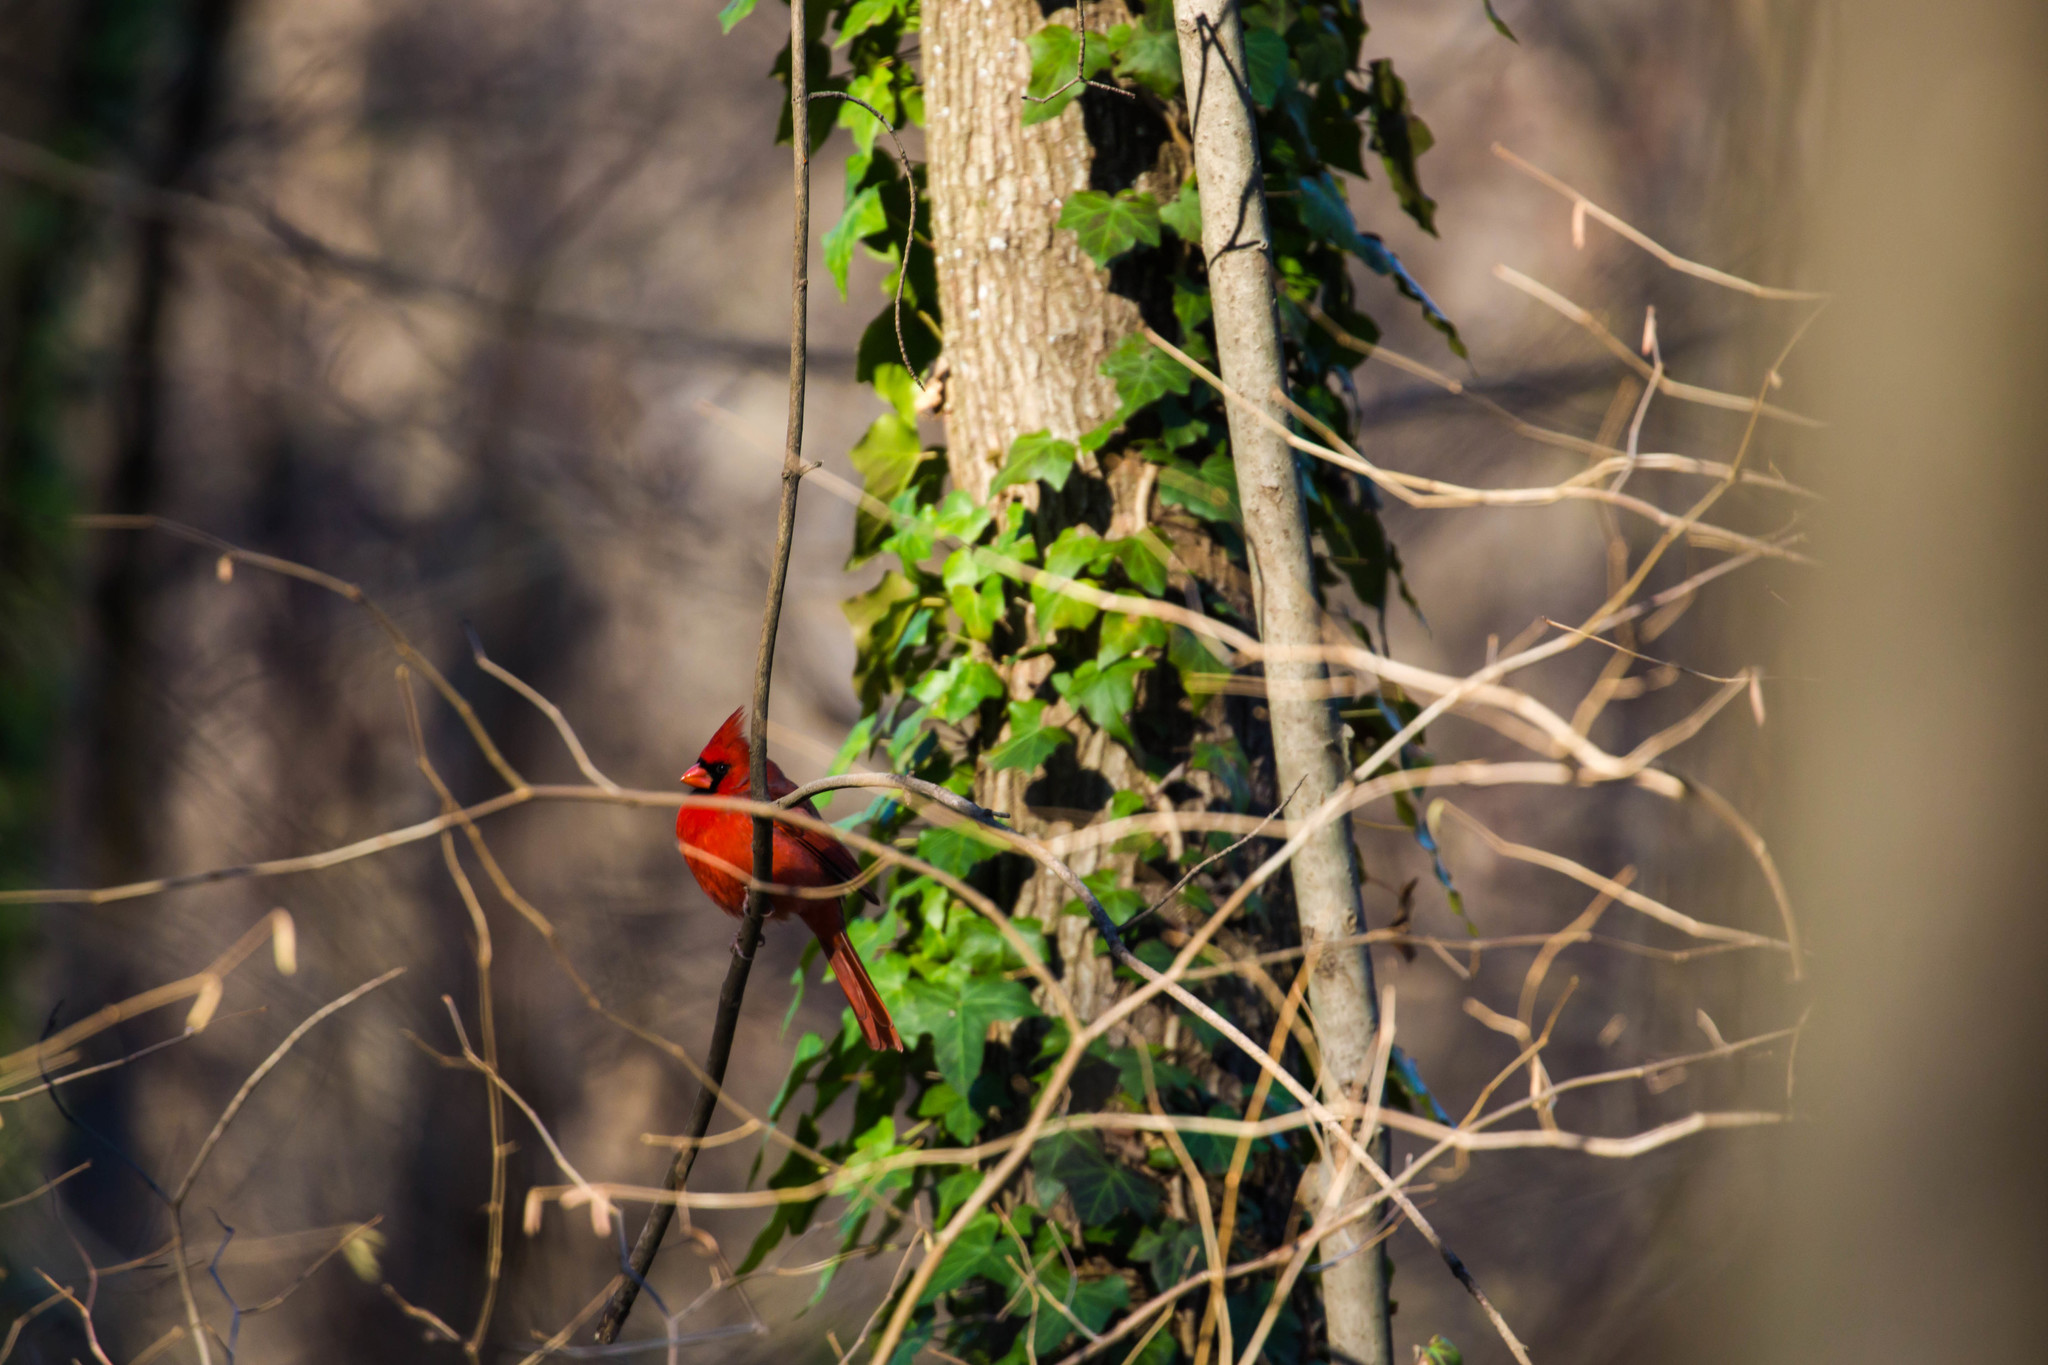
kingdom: Animalia
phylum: Chordata
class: Aves
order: Passeriformes
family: Cardinalidae
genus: Cardinalis
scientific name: Cardinalis cardinalis
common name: Northern cardinal
